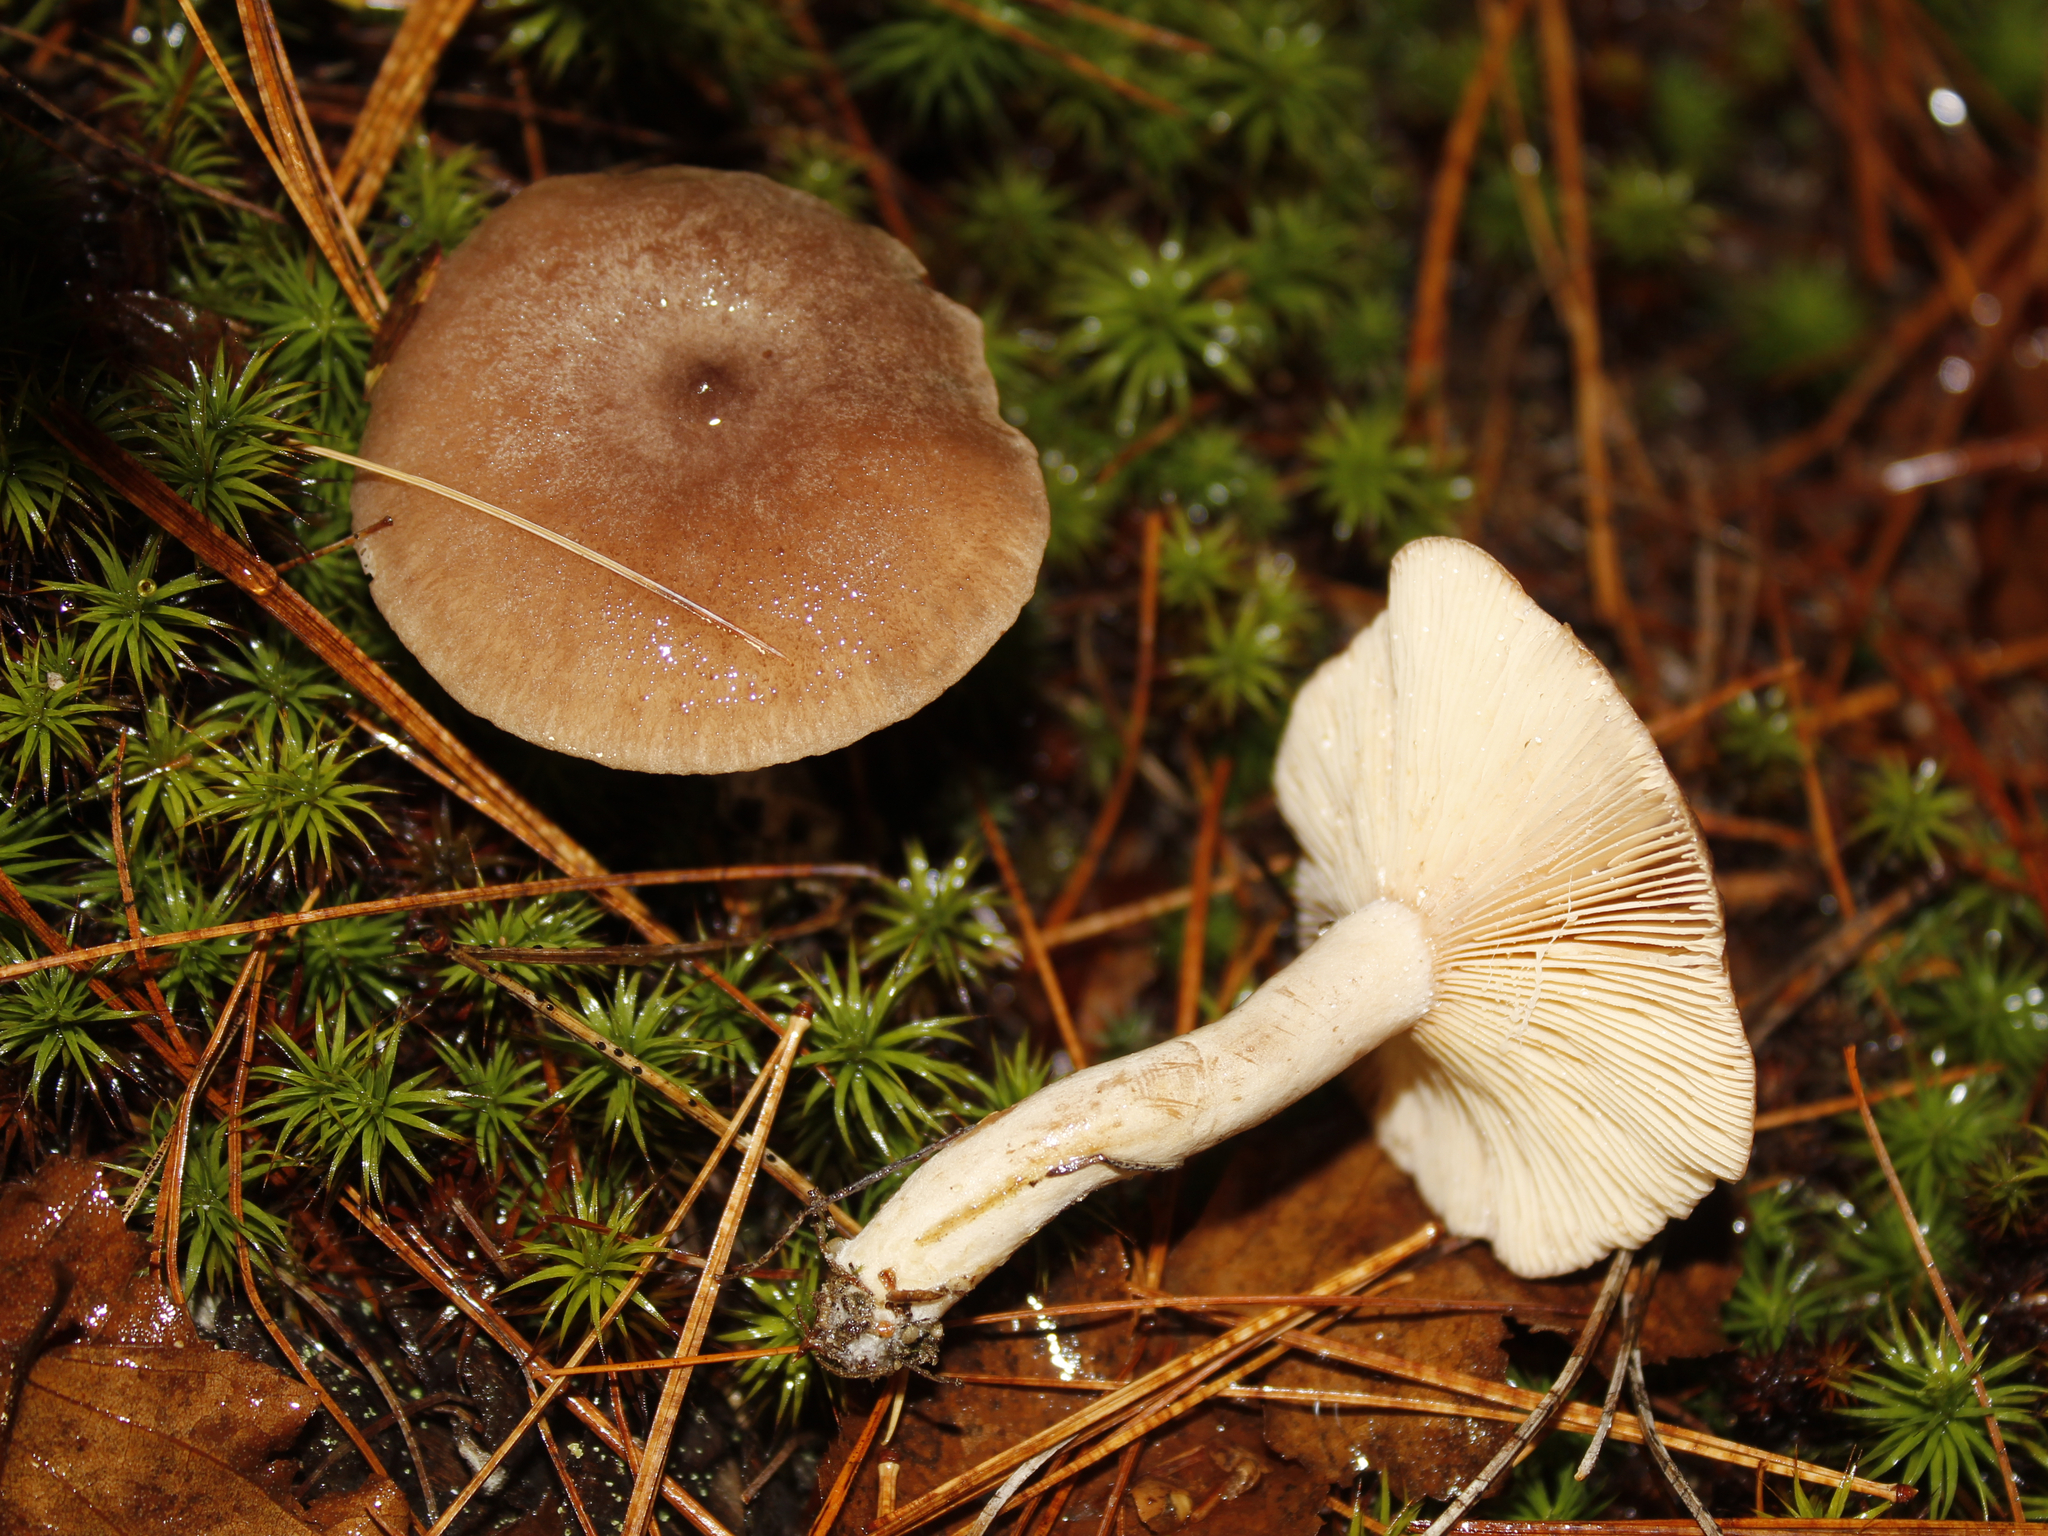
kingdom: Fungi
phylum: Basidiomycota
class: Agaricomycetes
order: Russulales
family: Russulaceae
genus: Lactarius
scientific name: Lactarius mammosus
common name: Pap milkcap
